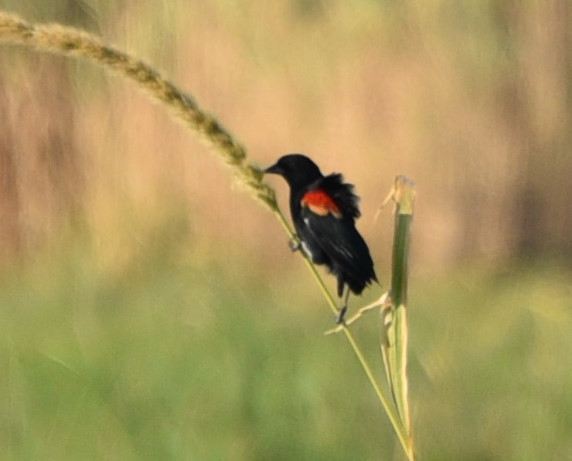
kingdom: Animalia
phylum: Chordata
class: Aves
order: Passeriformes
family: Icteridae
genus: Agelaius
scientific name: Agelaius phoeniceus
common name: Red-winged blackbird
